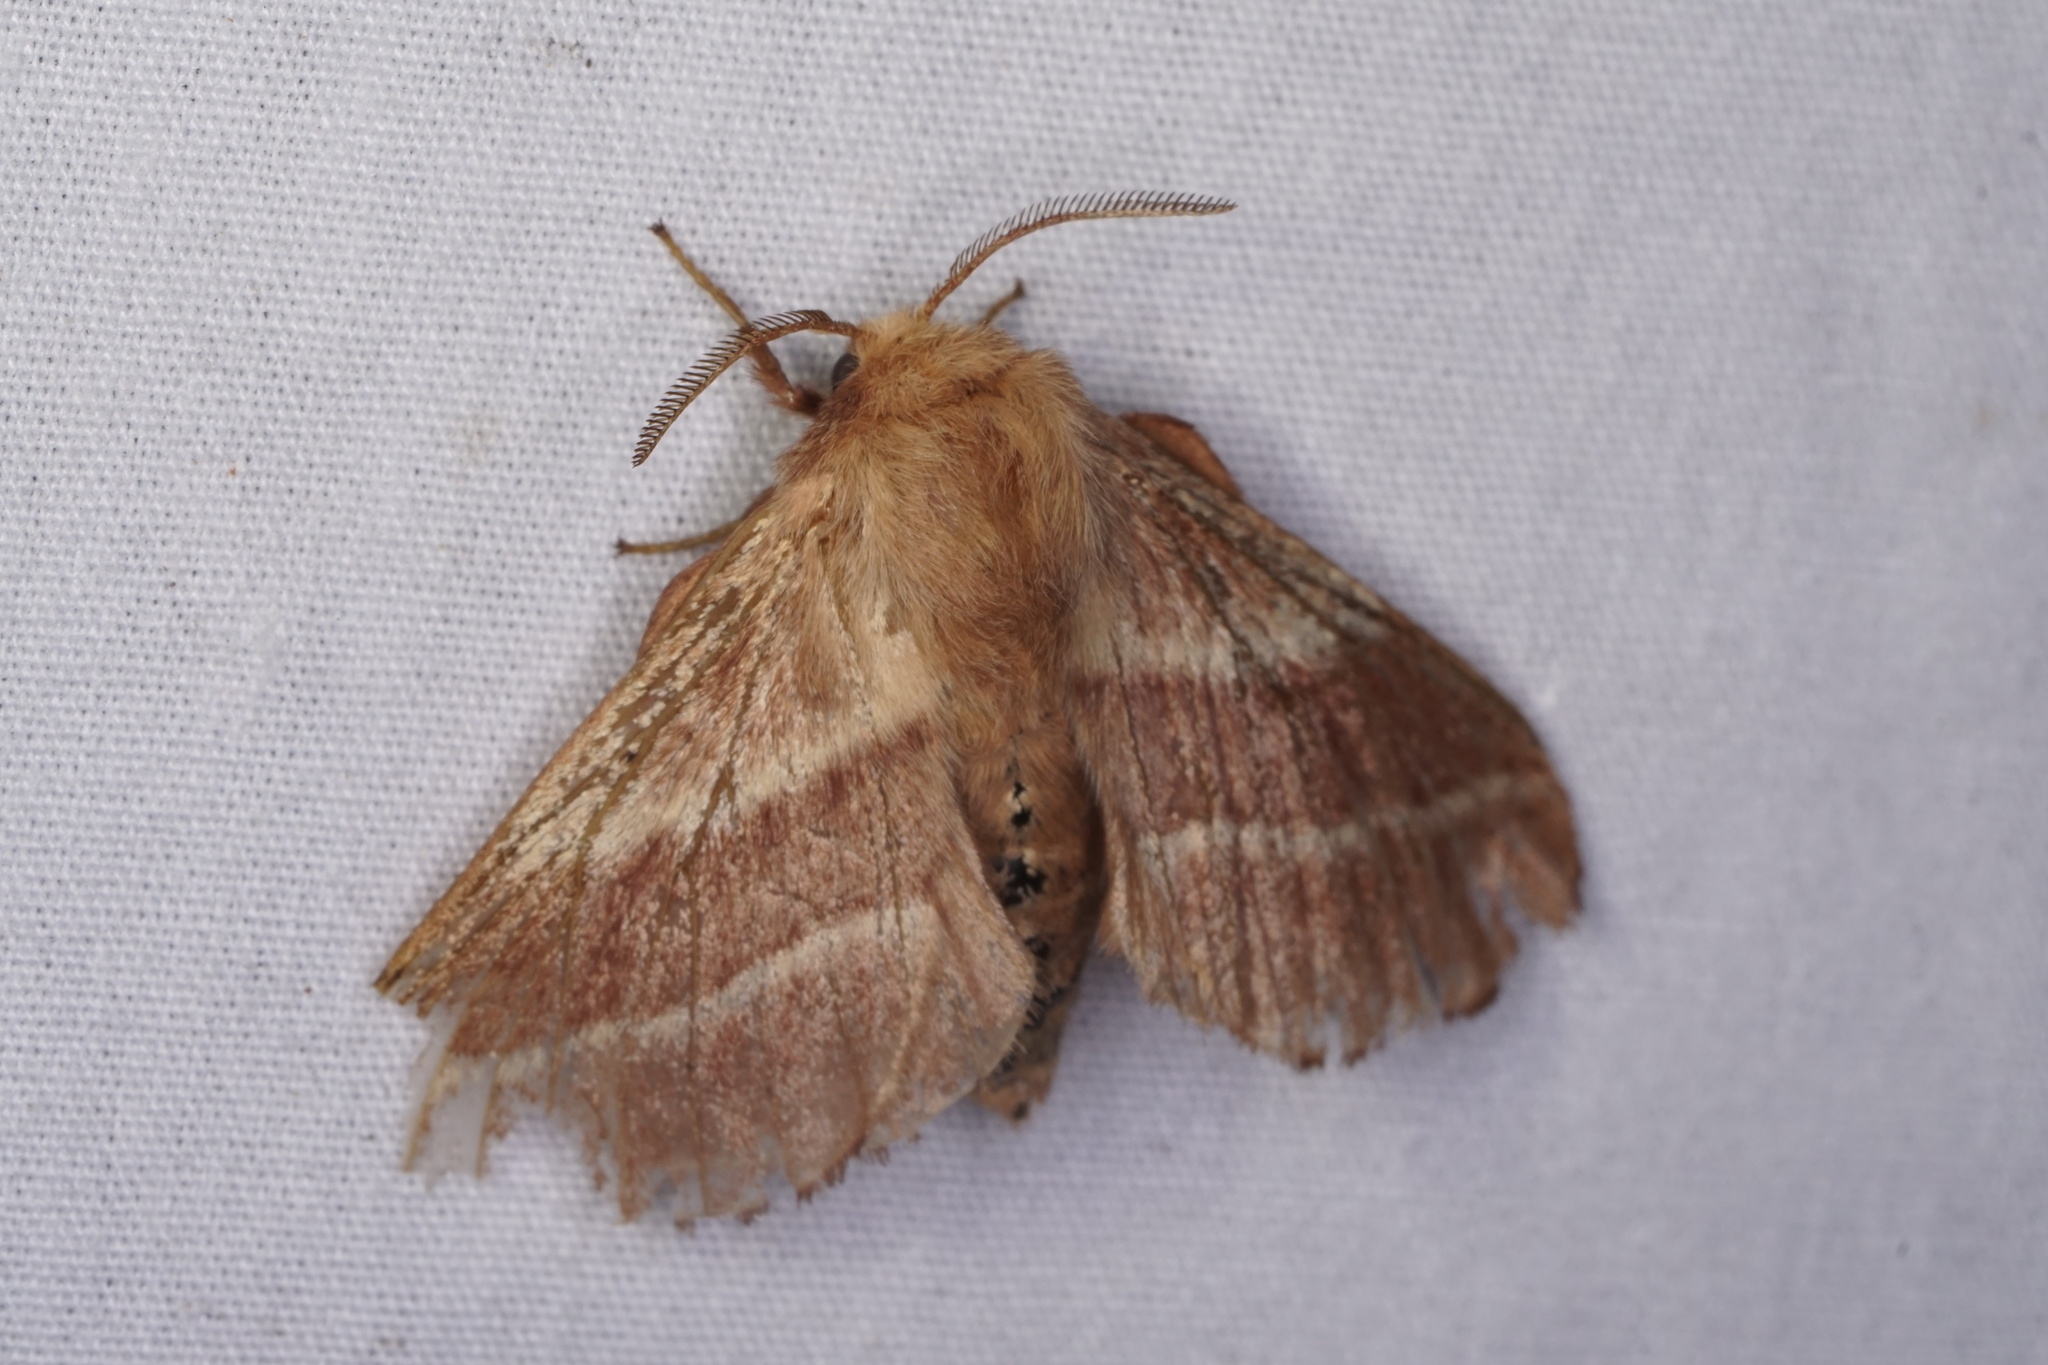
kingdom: Animalia
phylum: Arthropoda
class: Insecta
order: Lepidoptera
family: Lasiocampidae
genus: Malacosoma
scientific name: Malacosoma americana
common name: Eastern tent caterpillar moth
